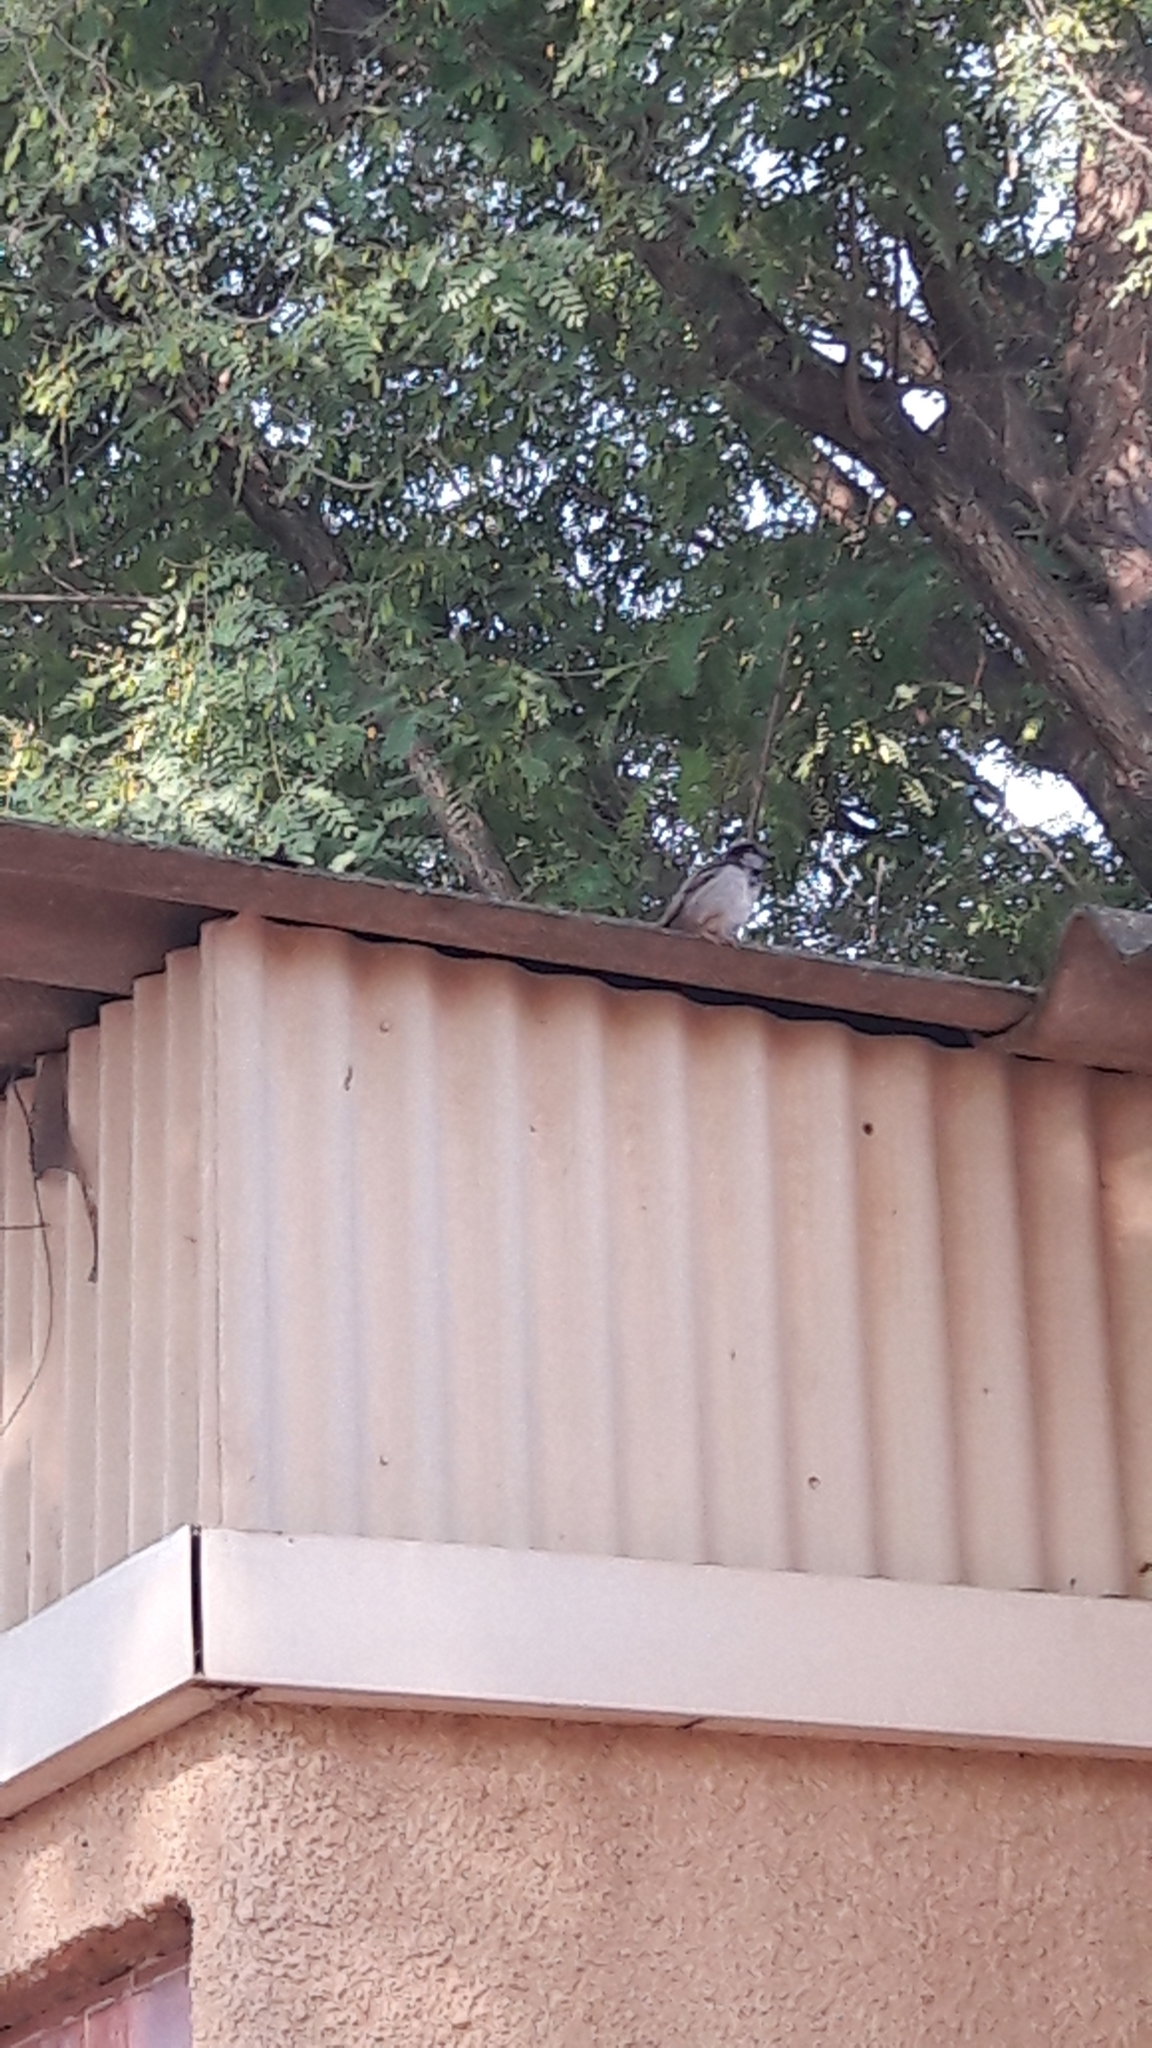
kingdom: Animalia
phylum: Chordata
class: Aves
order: Passeriformes
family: Passeridae
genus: Passer
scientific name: Passer domesticus
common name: House sparrow
